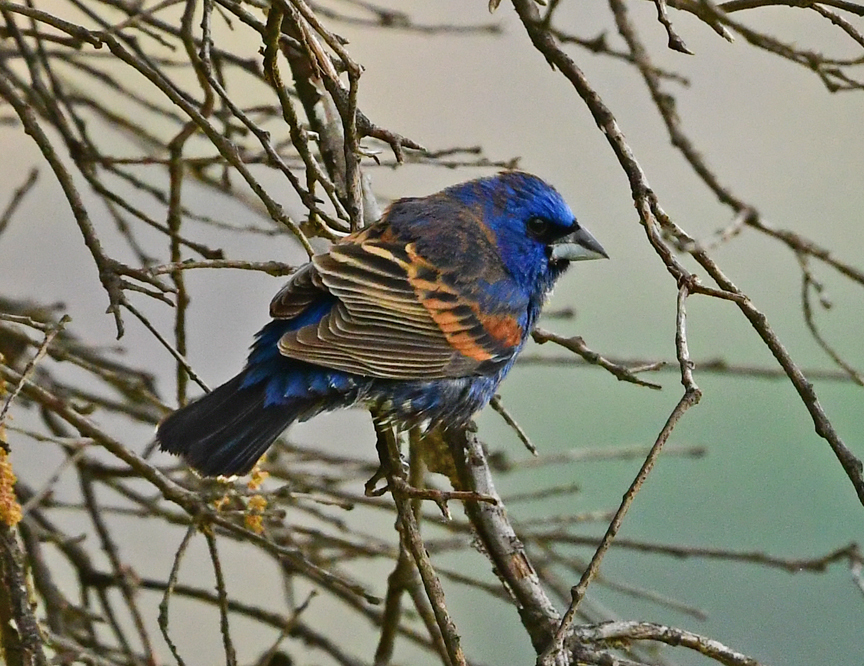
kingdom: Animalia
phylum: Chordata
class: Aves
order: Passeriformes
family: Cardinalidae
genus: Passerina
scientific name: Passerina caerulea
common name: Blue grosbeak
